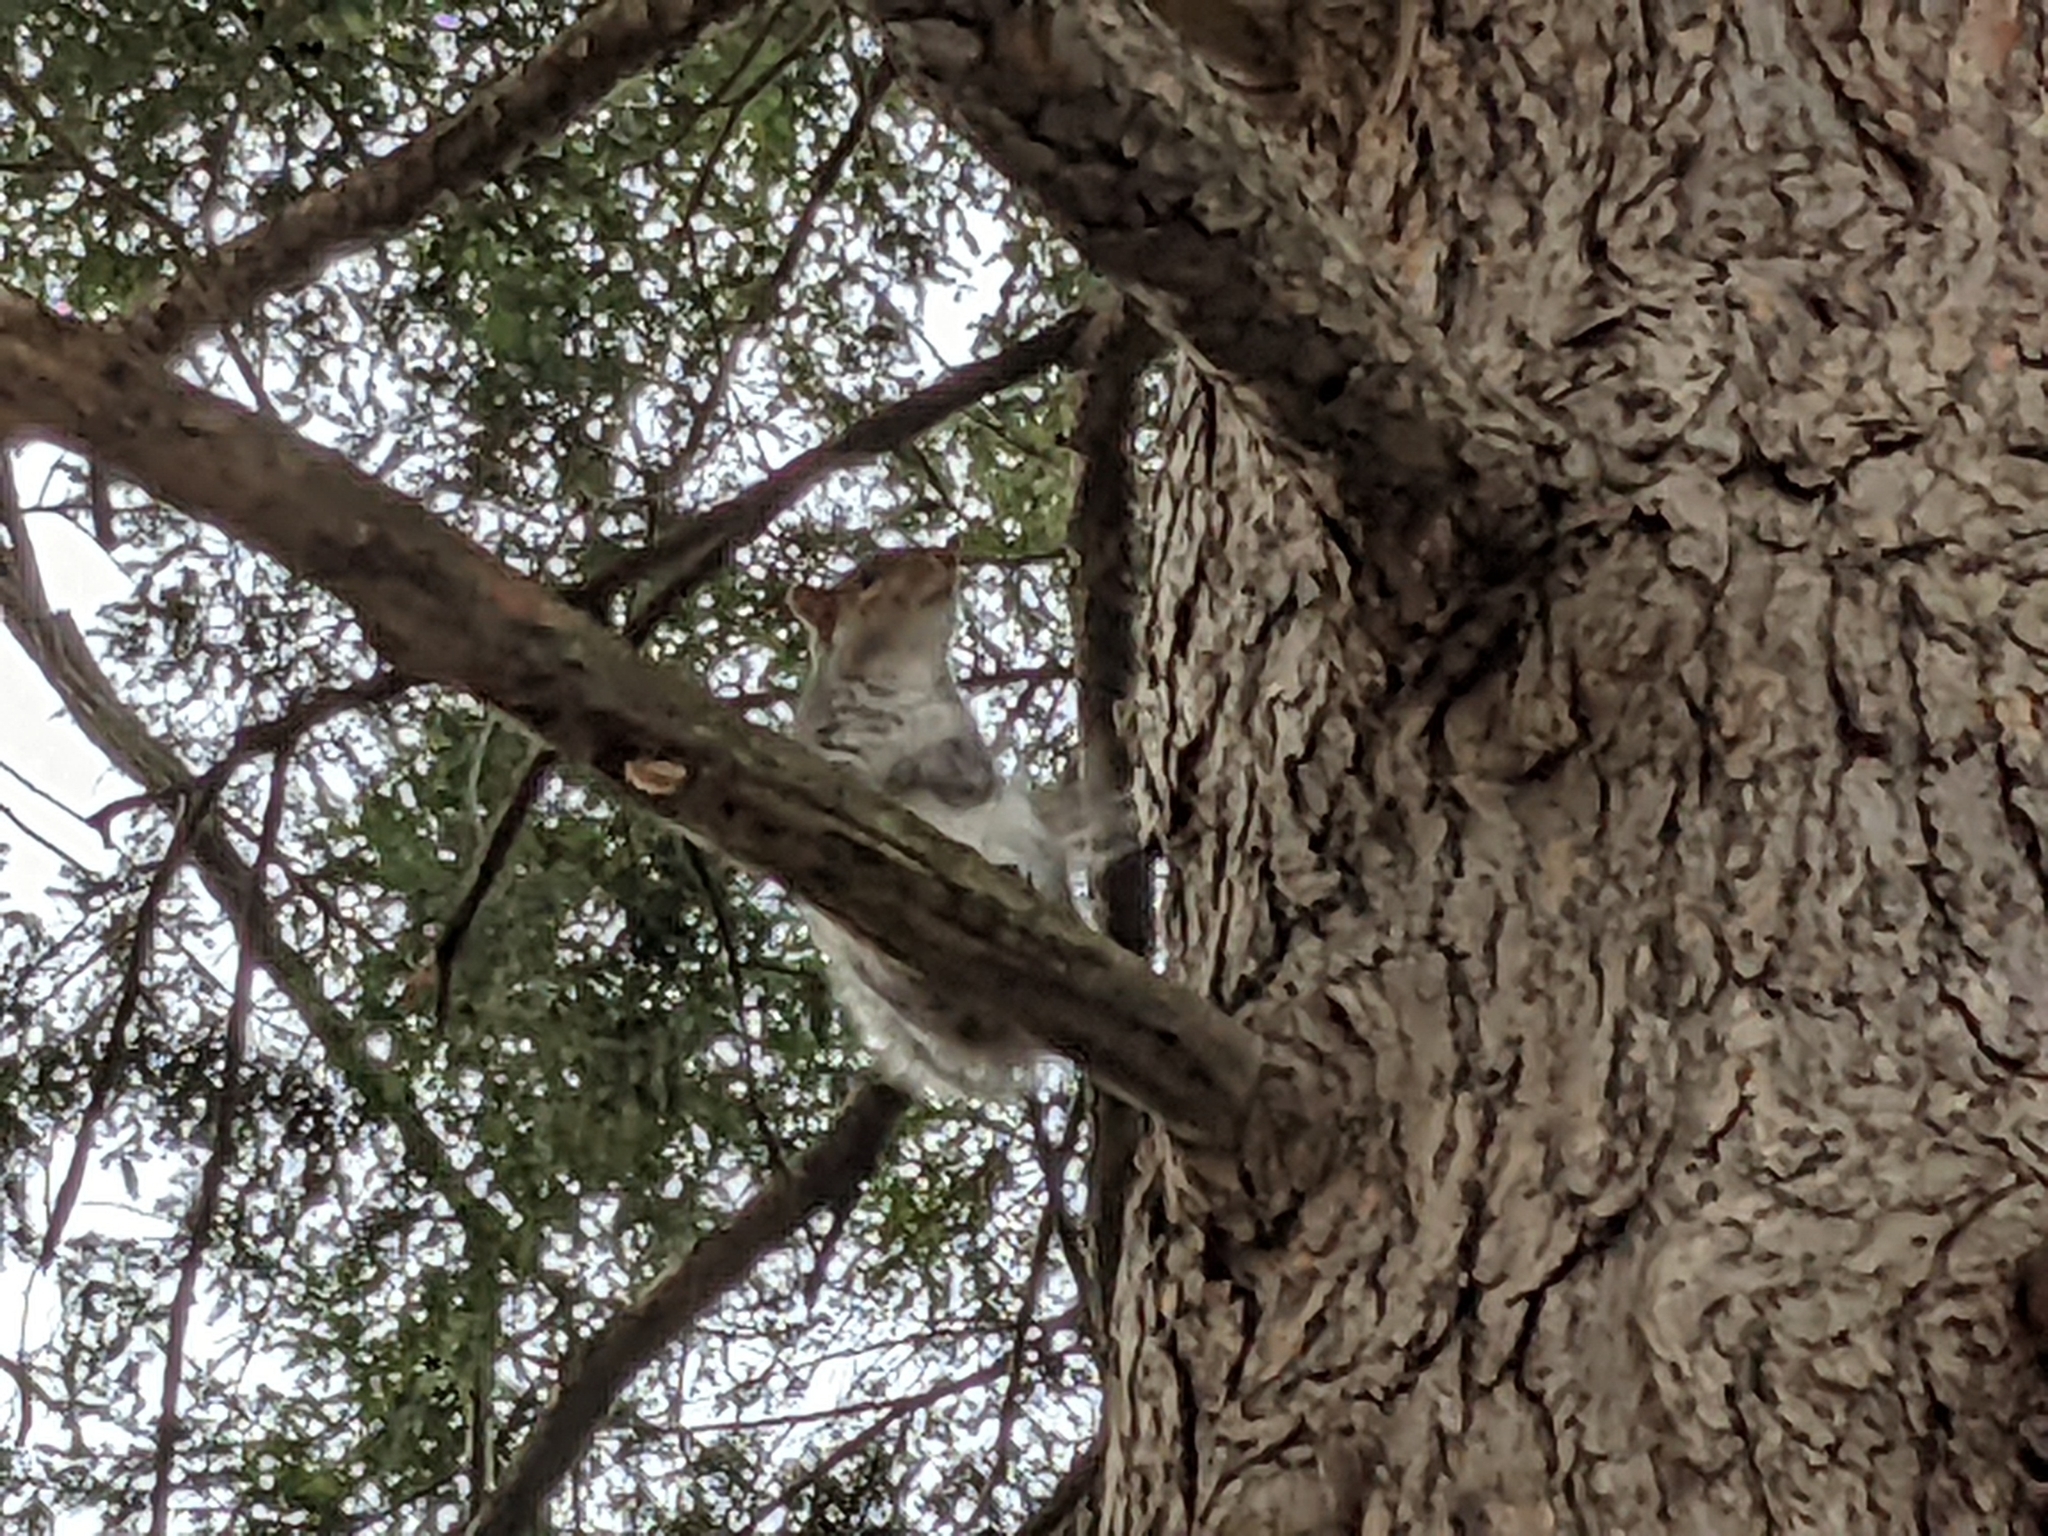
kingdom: Animalia
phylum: Chordata
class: Mammalia
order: Rodentia
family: Sciuridae
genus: Sciurus
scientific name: Sciurus carolinensis
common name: Eastern gray squirrel
